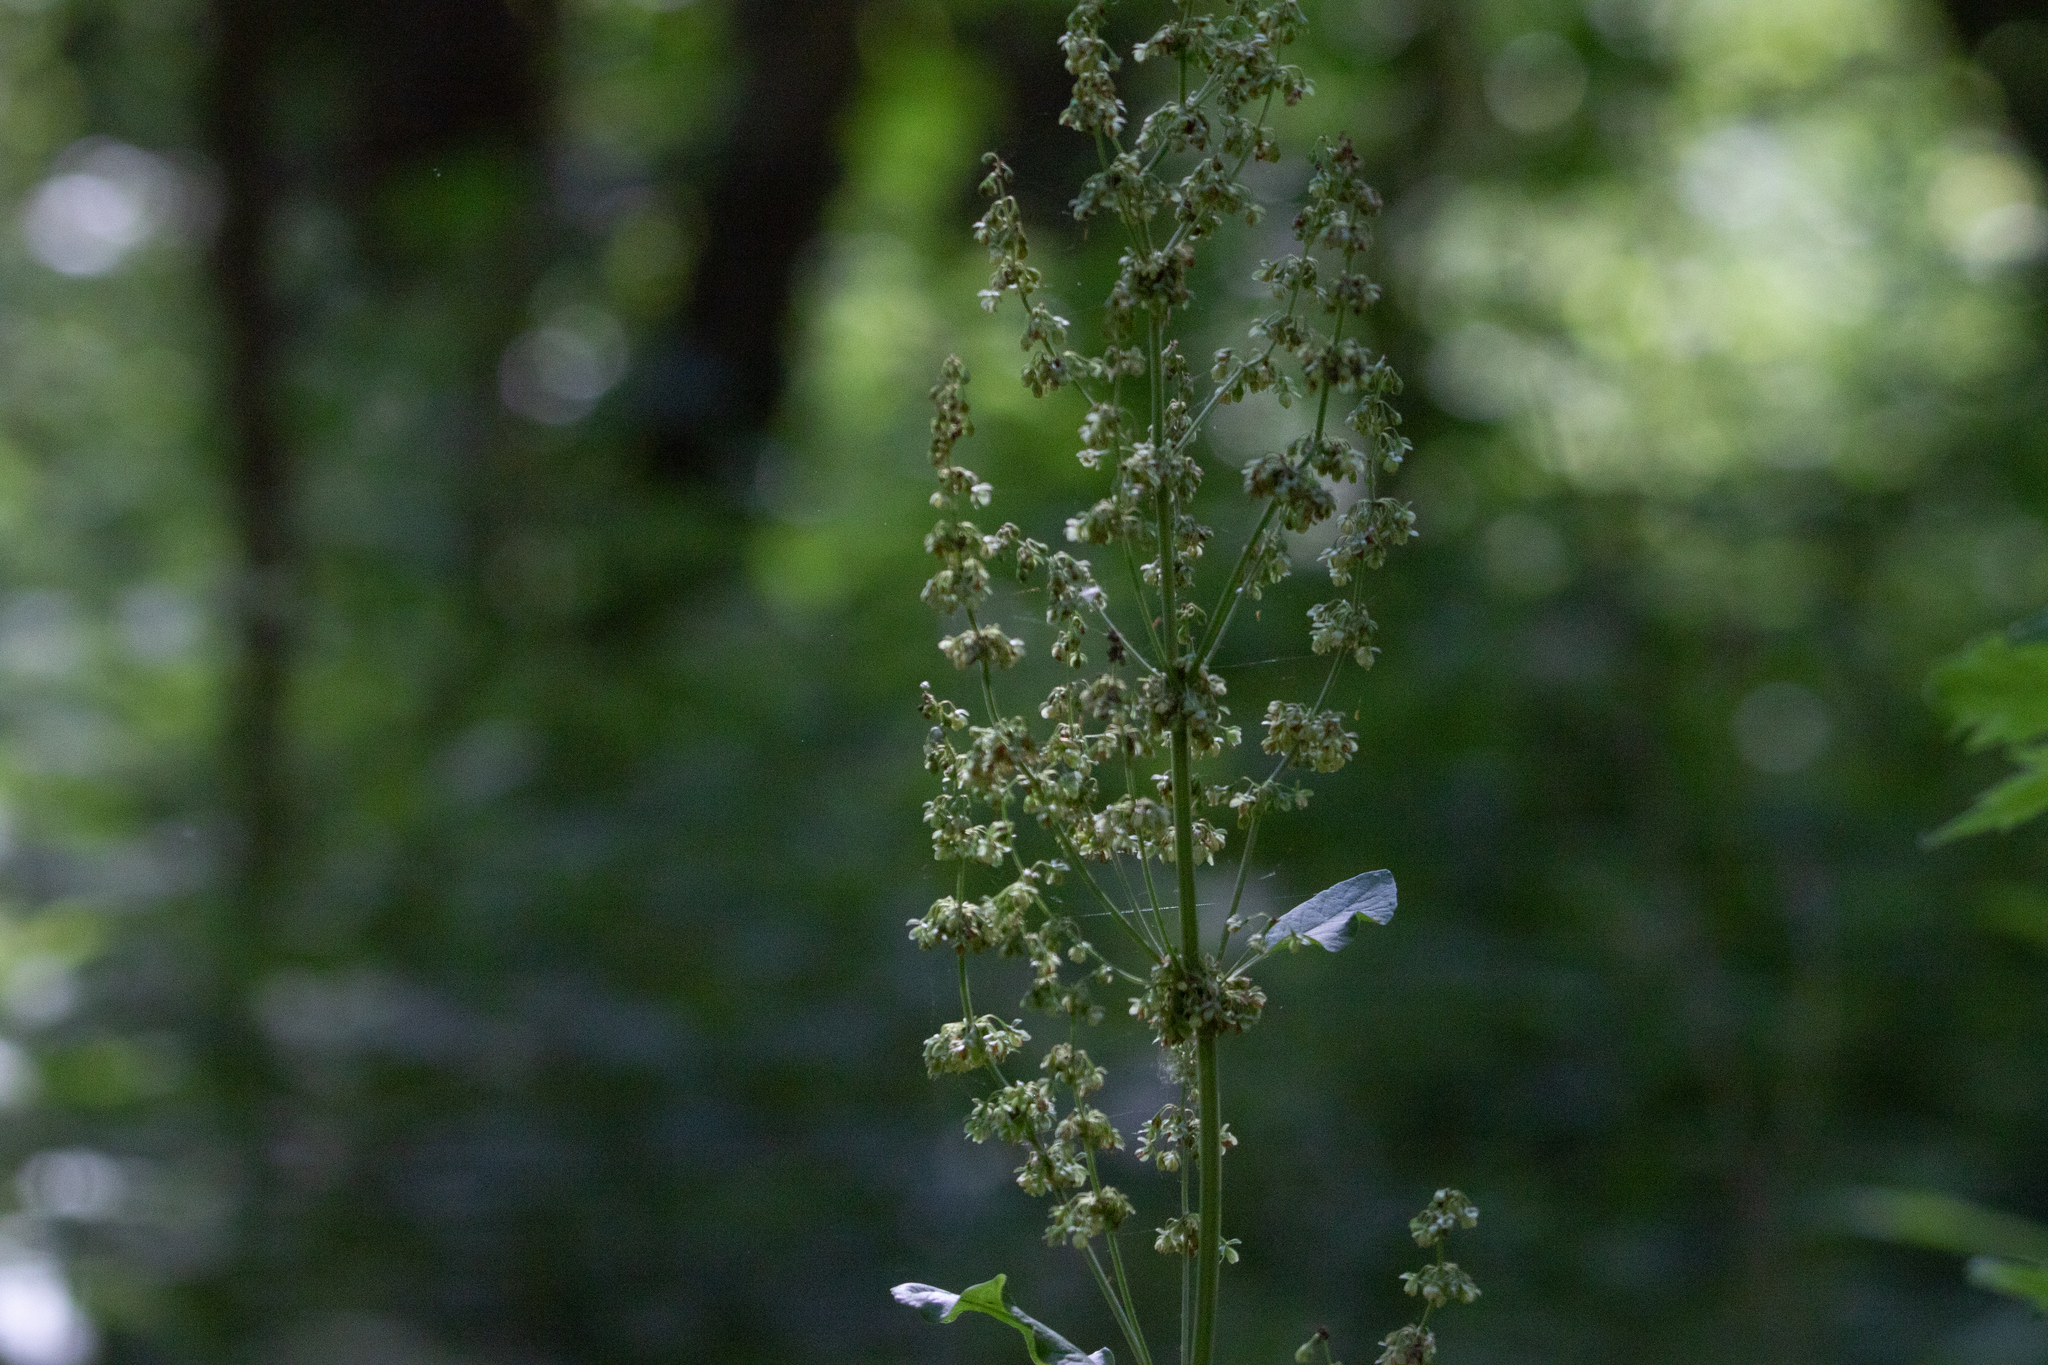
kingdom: Plantae
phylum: Tracheophyta
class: Magnoliopsida
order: Caryophyllales
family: Polygonaceae
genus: Rumex
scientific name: Rumex aquaticus
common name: Scottish dock
